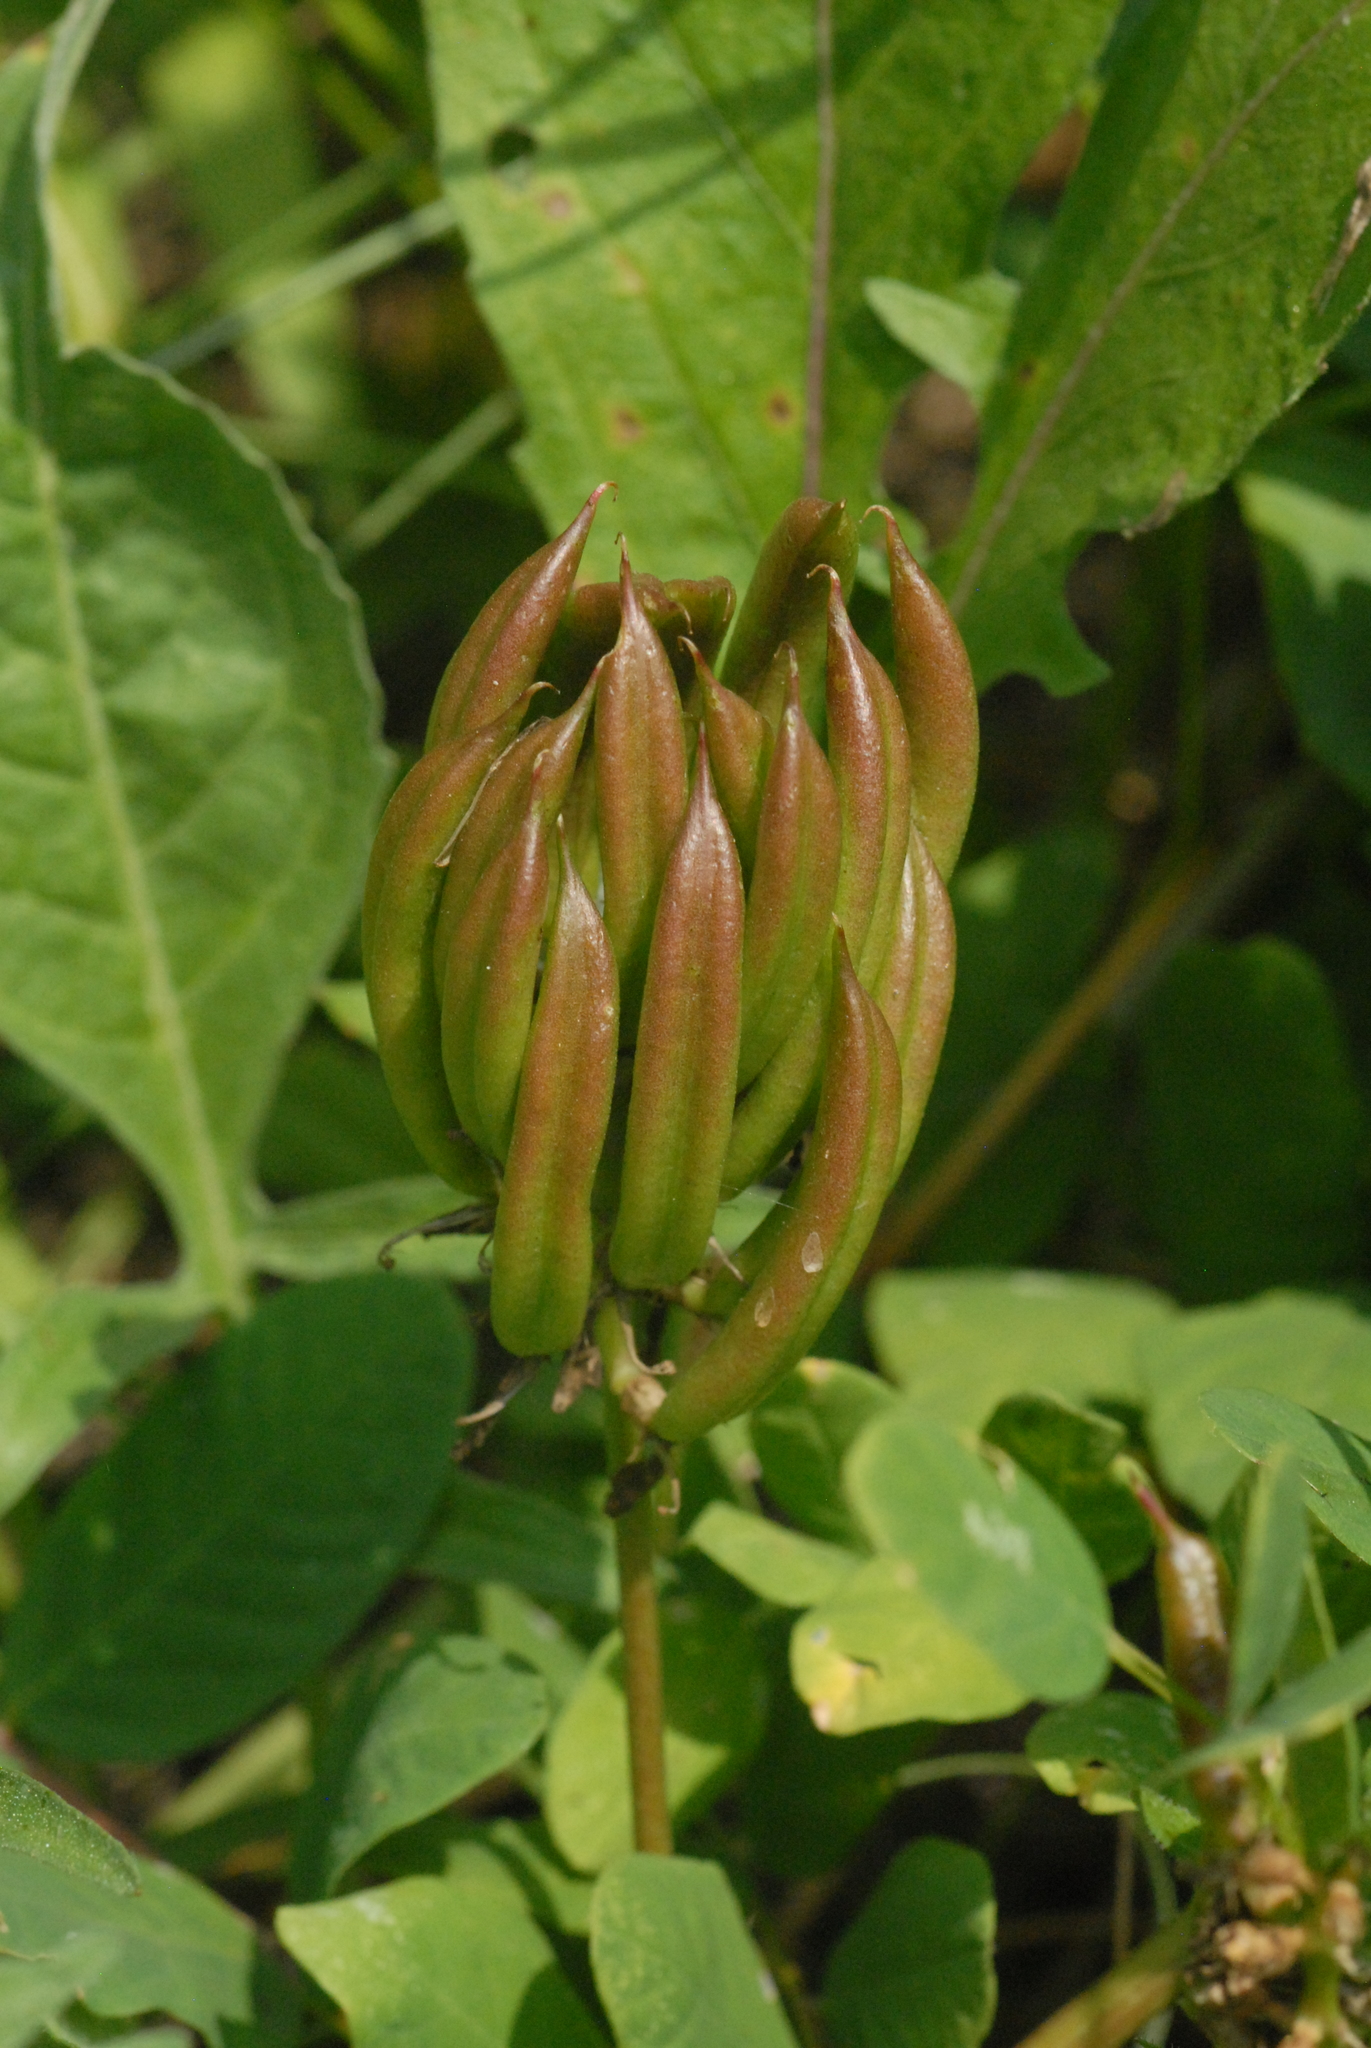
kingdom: Plantae
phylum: Tracheophyta
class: Magnoliopsida
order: Fabales
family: Fabaceae
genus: Astragalus
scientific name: Astragalus glycyphyllos
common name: Wild liquorice
